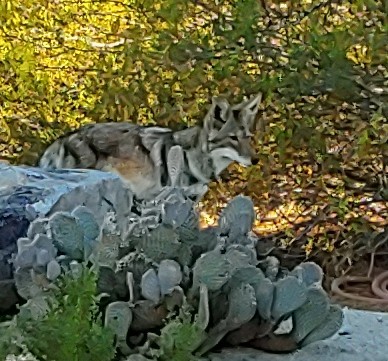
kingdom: Animalia
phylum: Chordata
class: Mammalia
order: Carnivora
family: Canidae
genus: Canis
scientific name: Canis latrans
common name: Coyote
